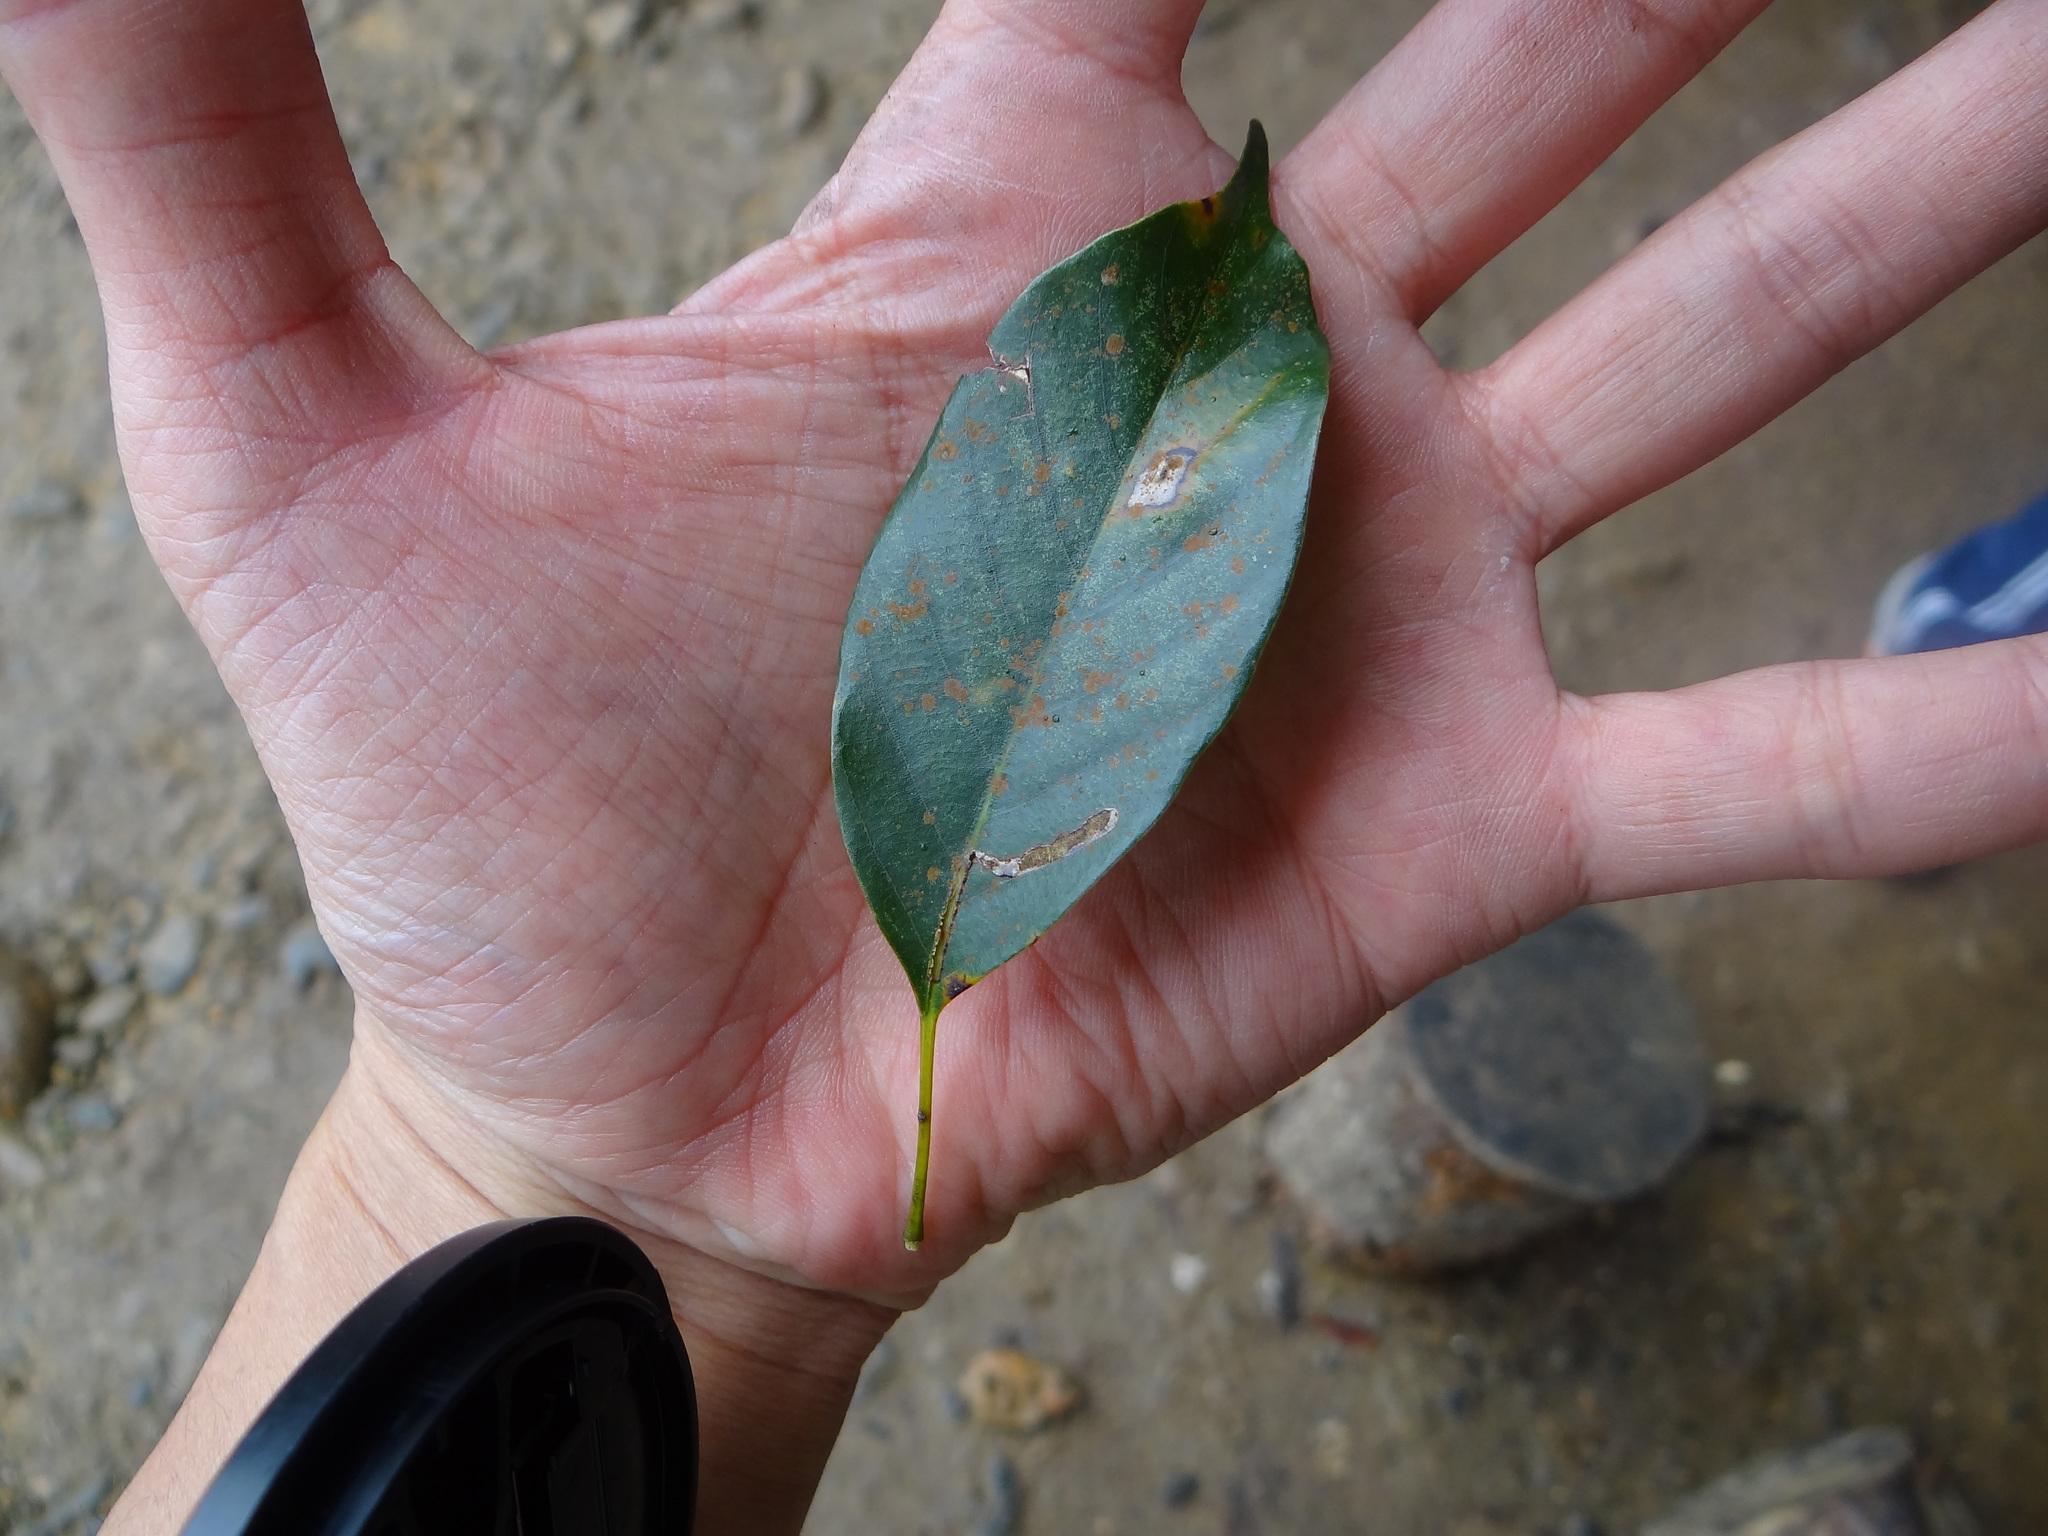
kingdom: Plantae
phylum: Tracheophyta
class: Magnoliopsida
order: Fagales
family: Fagaceae
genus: Quercus
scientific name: Quercus glauca
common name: Ring-cup oak
